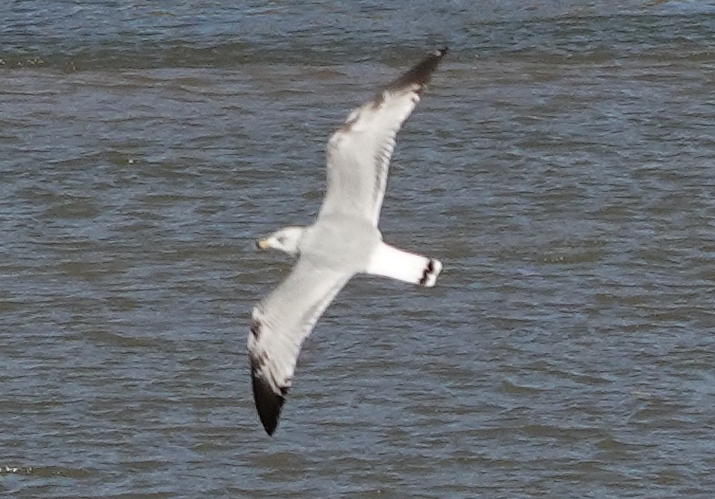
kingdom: Animalia
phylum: Chordata
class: Aves
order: Charadriiformes
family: Laridae
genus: Larus
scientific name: Larus delawarensis
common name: Ring-billed gull
